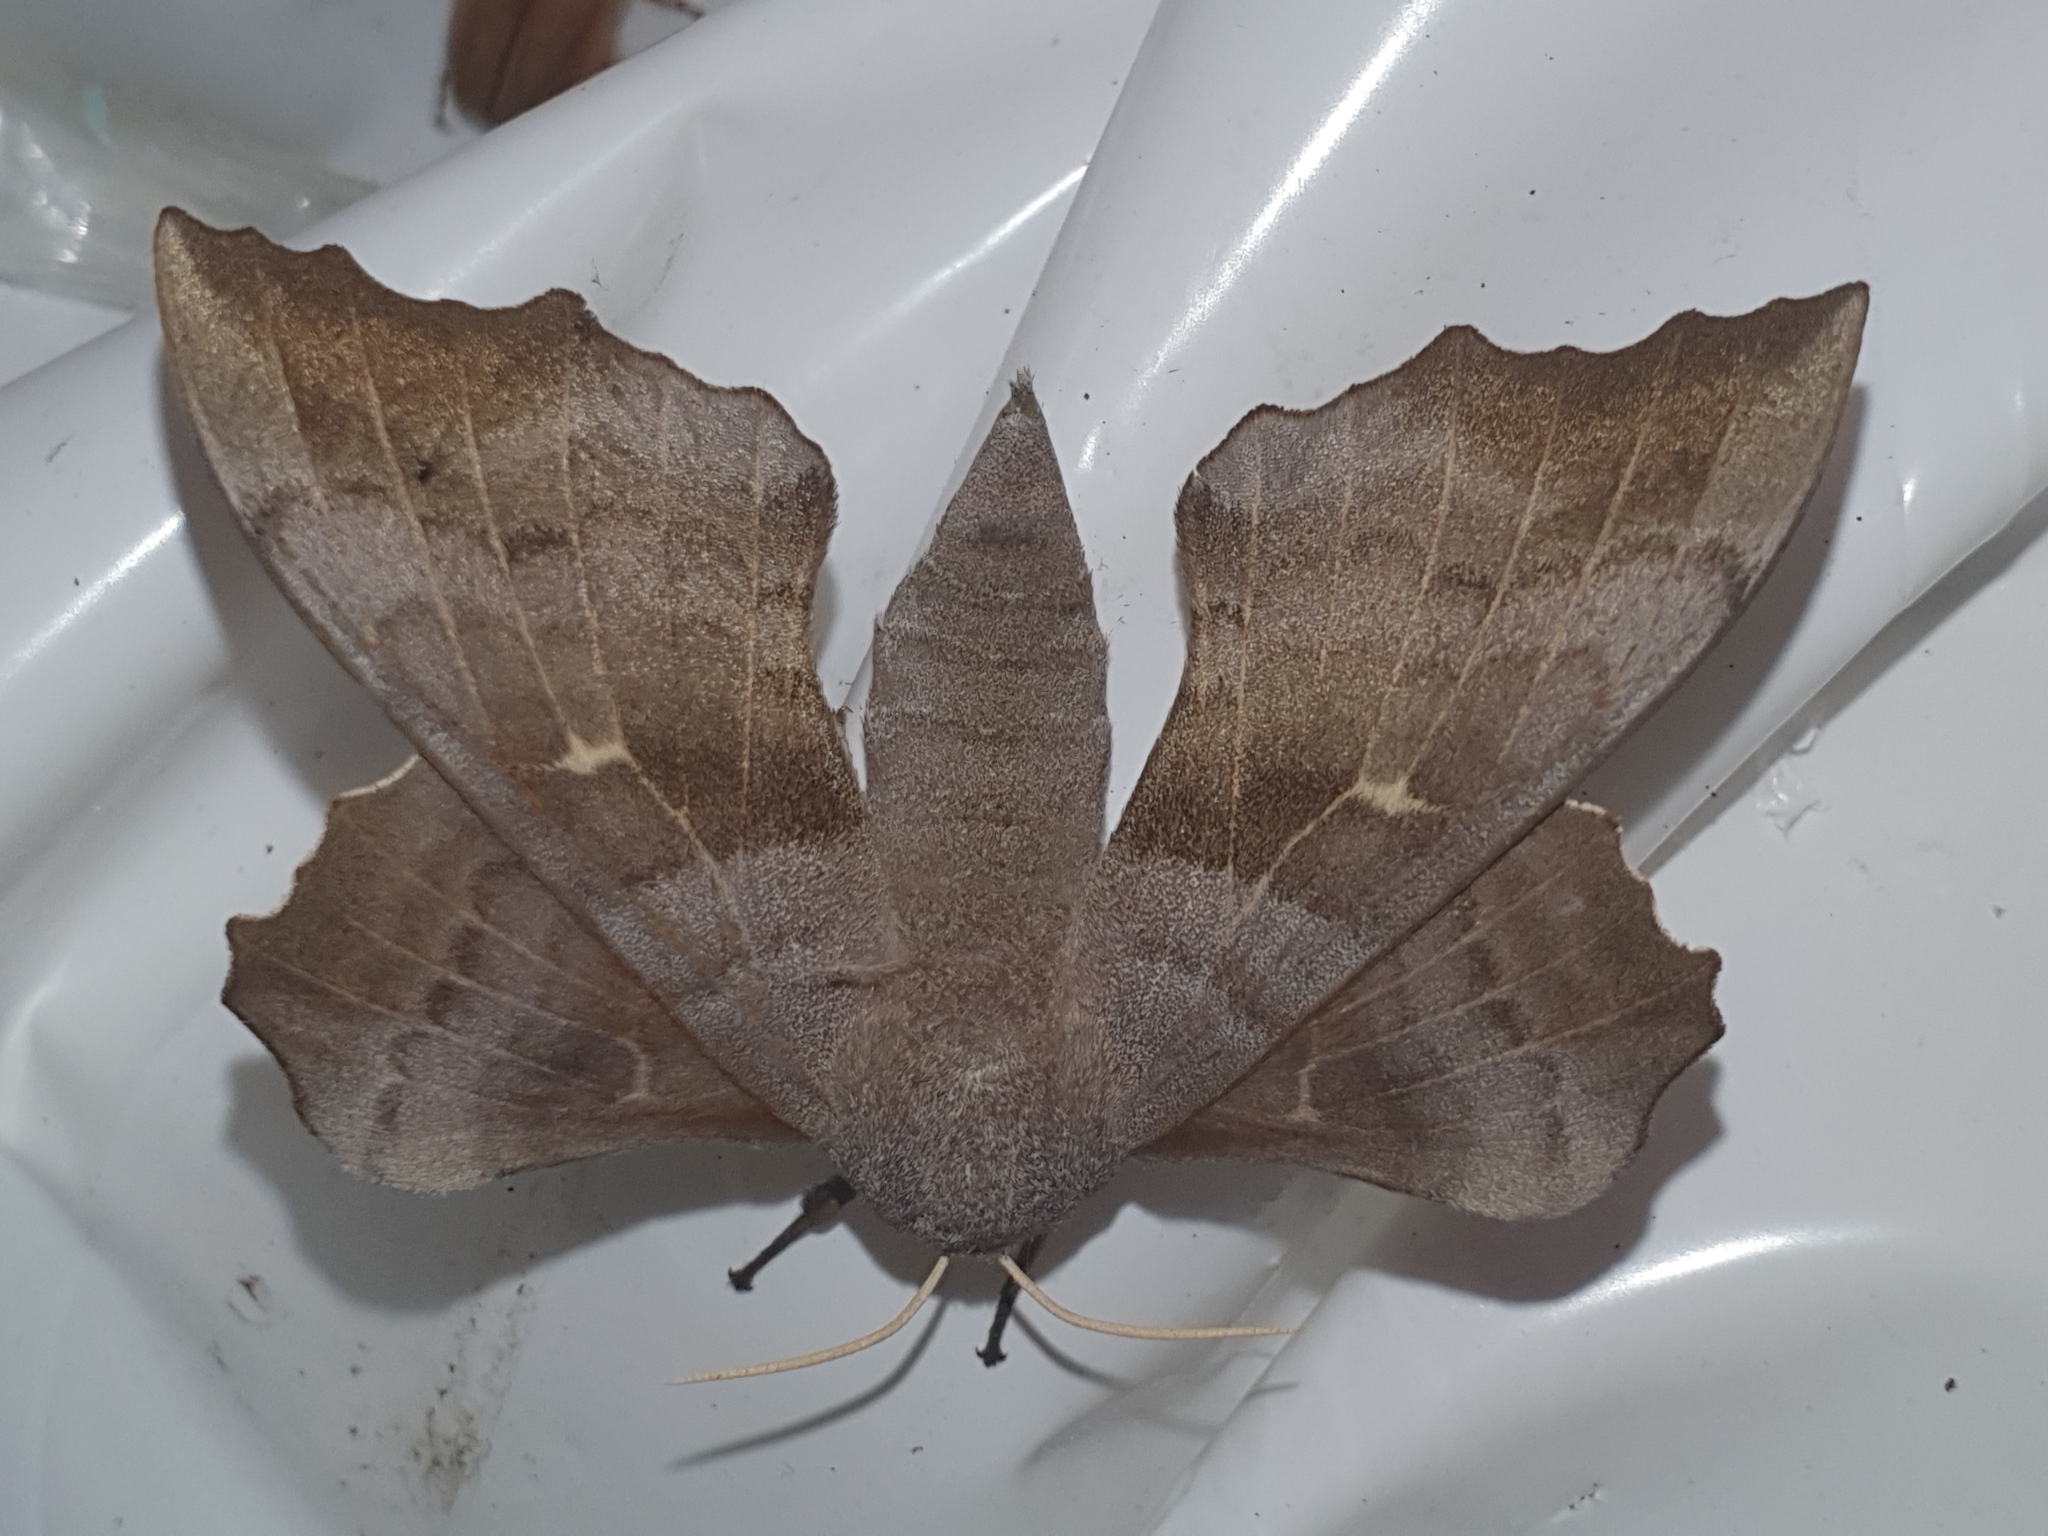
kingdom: Animalia
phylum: Arthropoda
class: Insecta
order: Lepidoptera
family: Sphingidae
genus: Laothoe
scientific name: Laothoe populi
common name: Poplar hawk-moth
